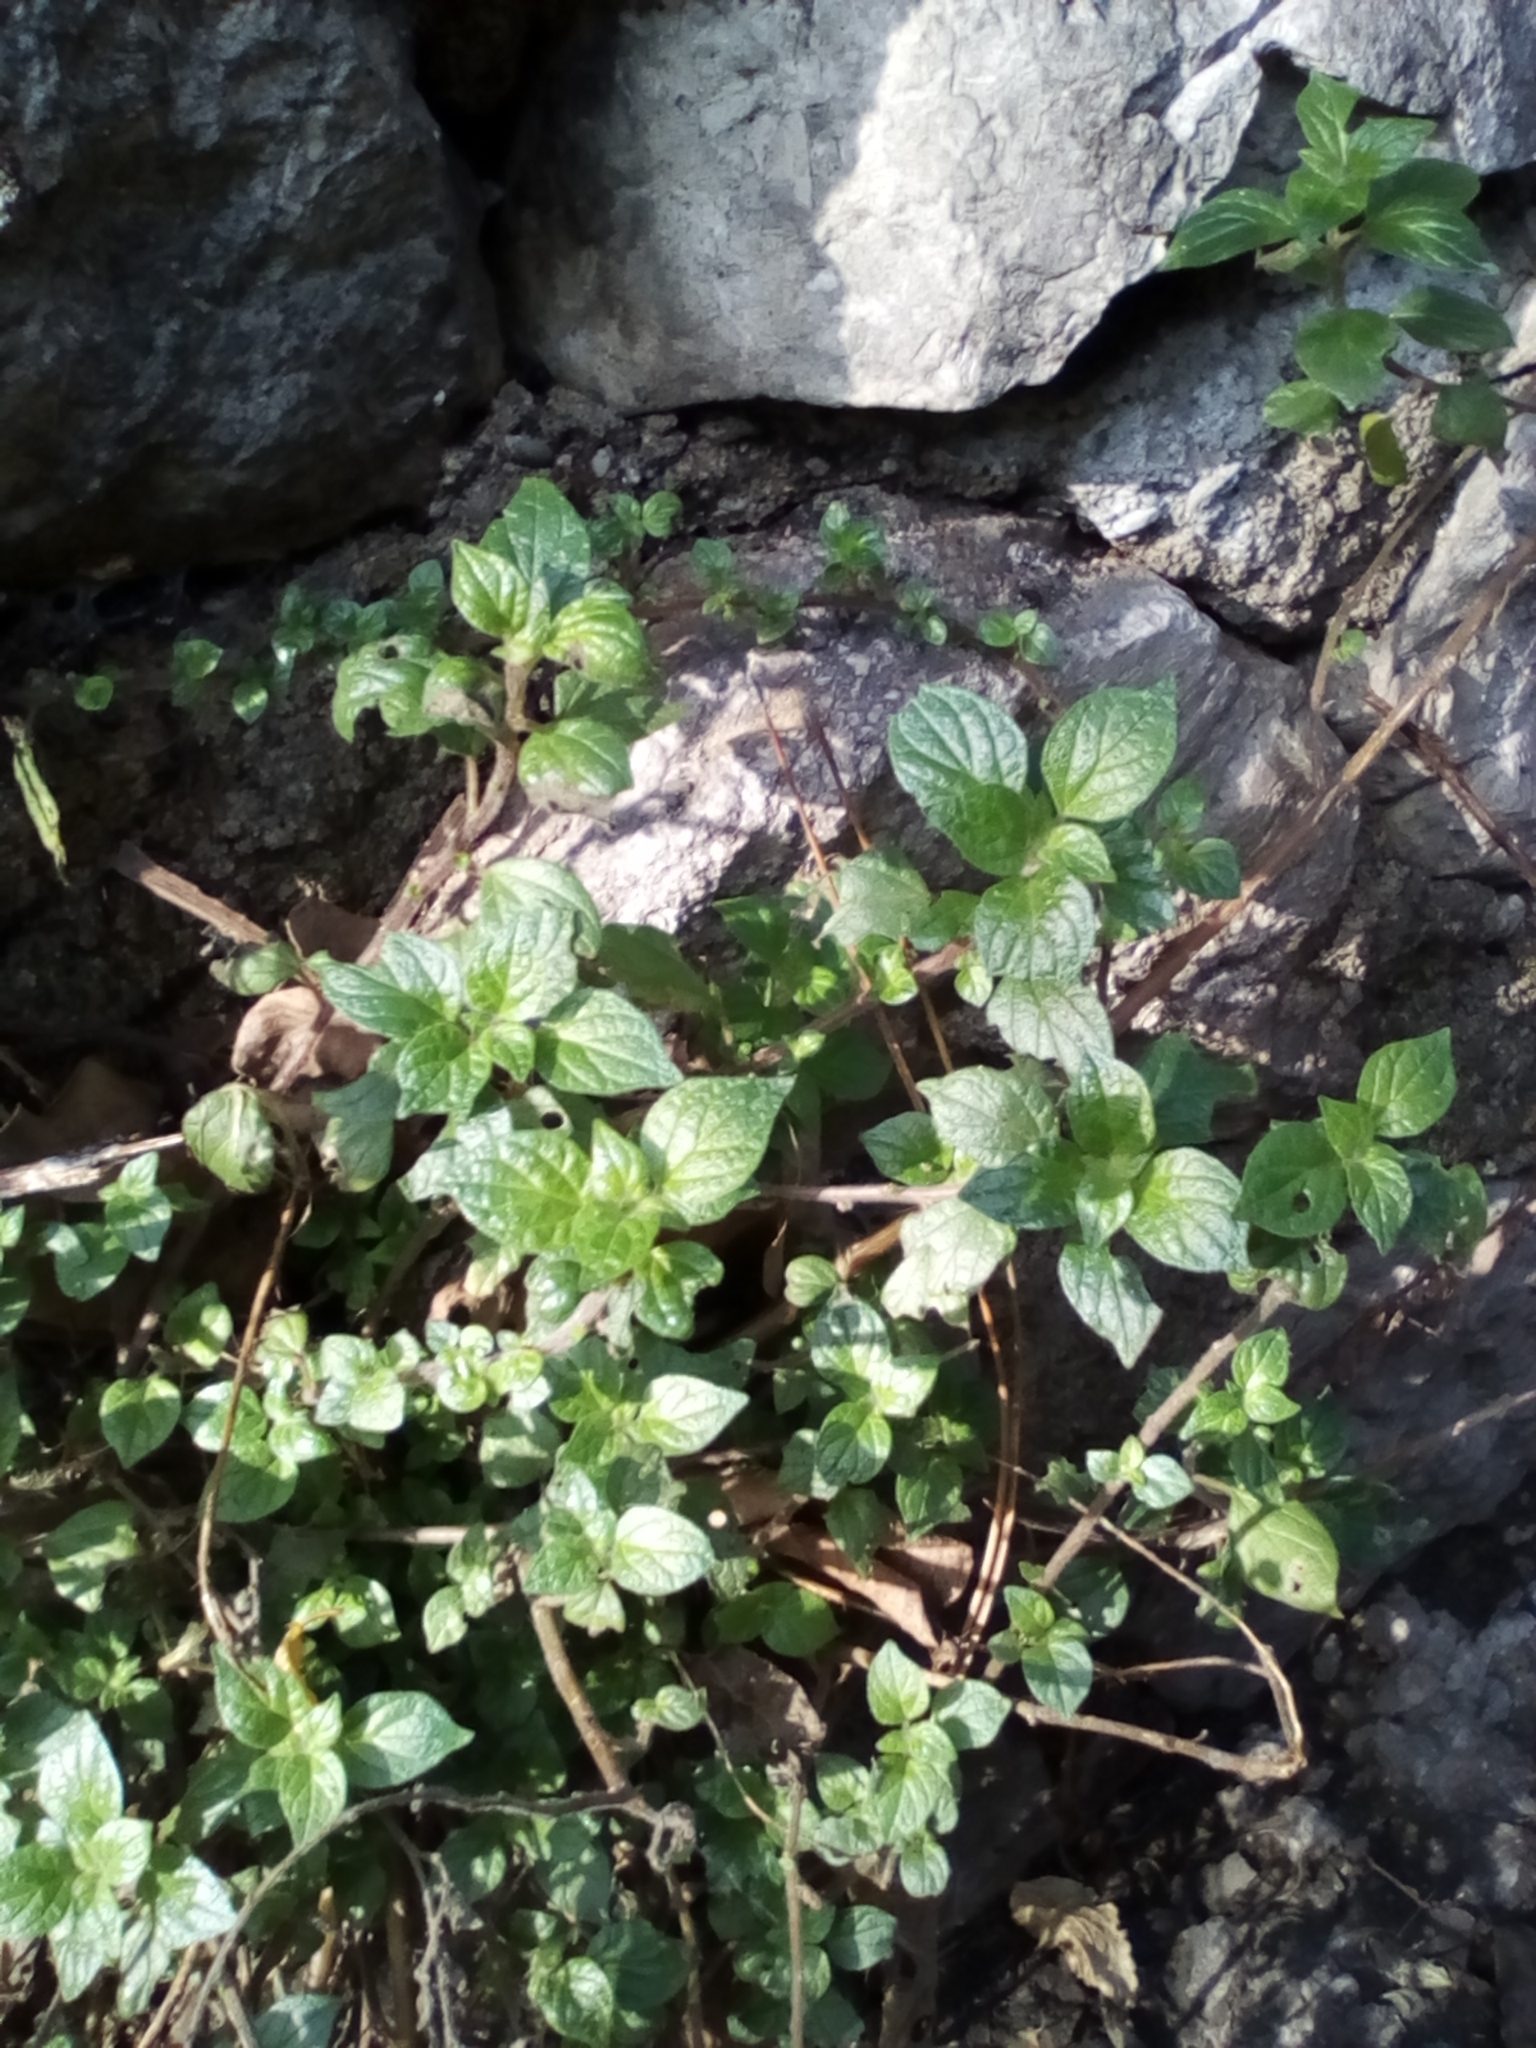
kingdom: Plantae
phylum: Tracheophyta
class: Magnoliopsida
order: Rosales
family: Urticaceae
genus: Parietaria
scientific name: Parietaria judaica
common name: Pellitory-of-the-wall
